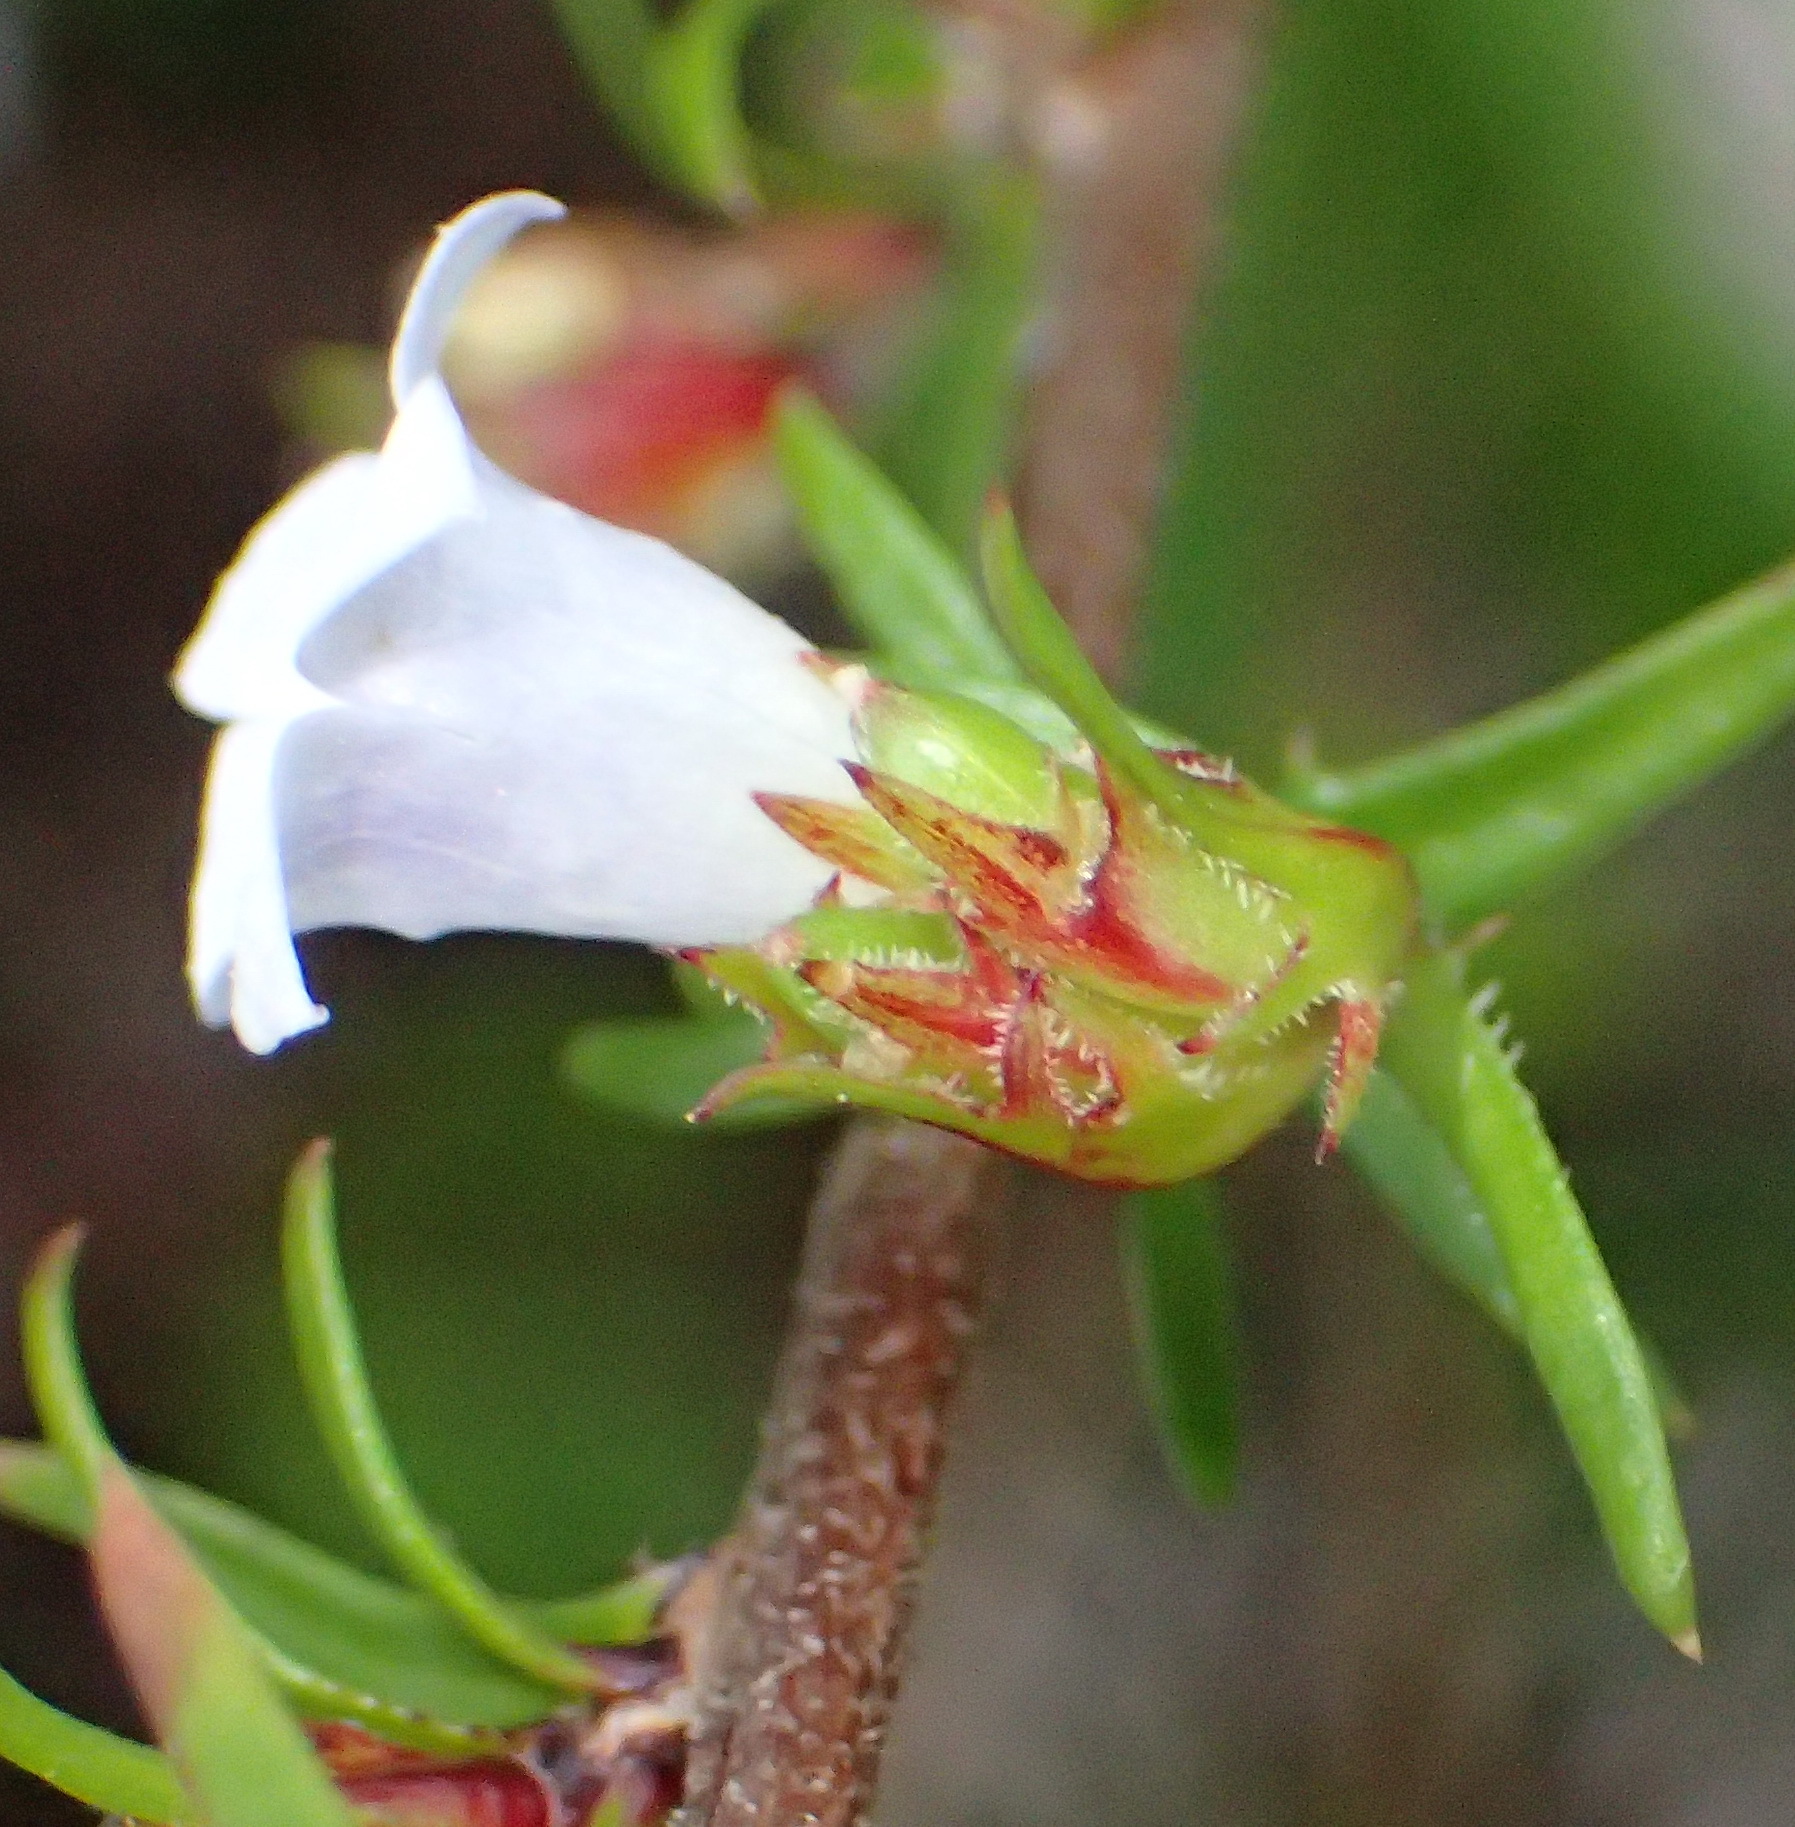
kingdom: Plantae
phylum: Tracheophyta
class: Magnoliopsida
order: Asterales
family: Campanulaceae
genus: Prismatocarpus
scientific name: Prismatocarpus candolleanus
